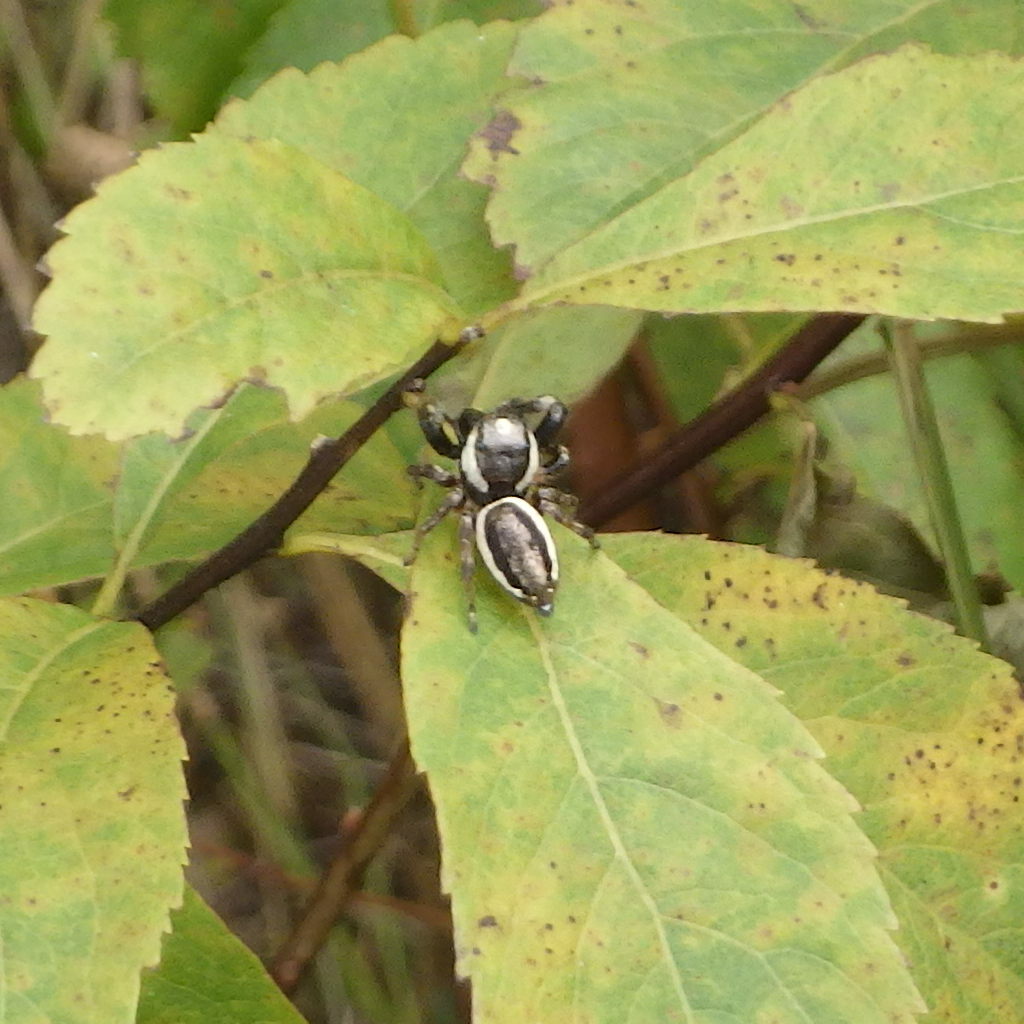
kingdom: Animalia
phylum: Arthropoda
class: Arachnida
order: Araneae
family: Salticidae
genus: Eris
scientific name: Eris militaris
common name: Bronze jumper
